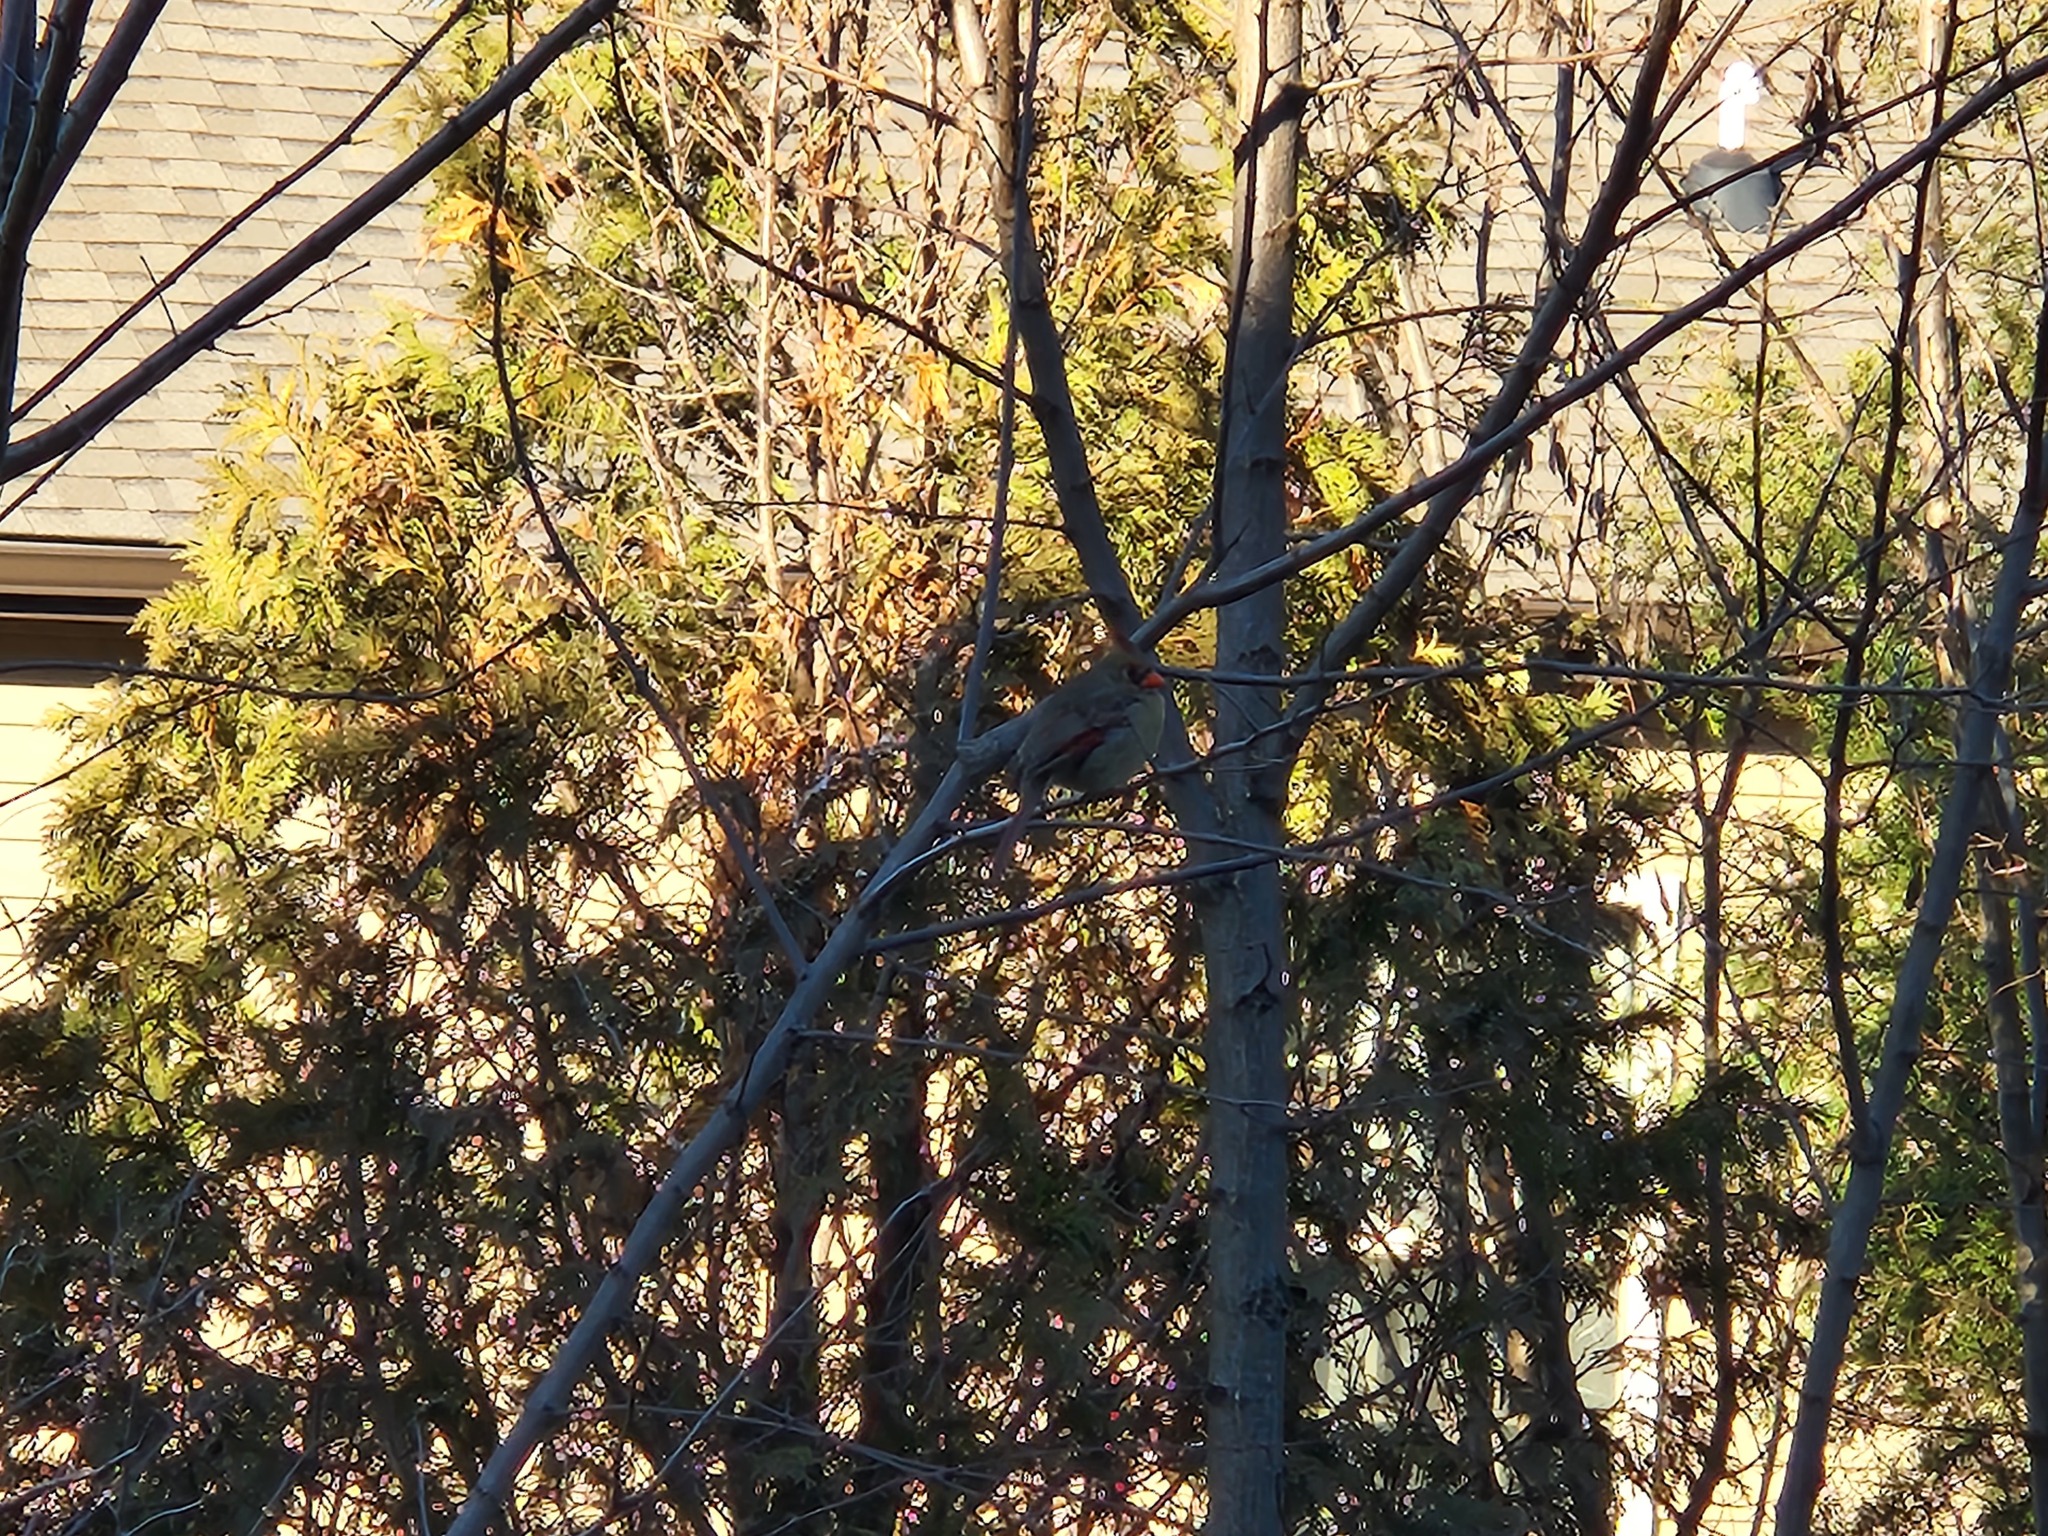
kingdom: Animalia
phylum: Chordata
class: Aves
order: Passeriformes
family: Cardinalidae
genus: Cardinalis
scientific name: Cardinalis cardinalis
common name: Northern cardinal
